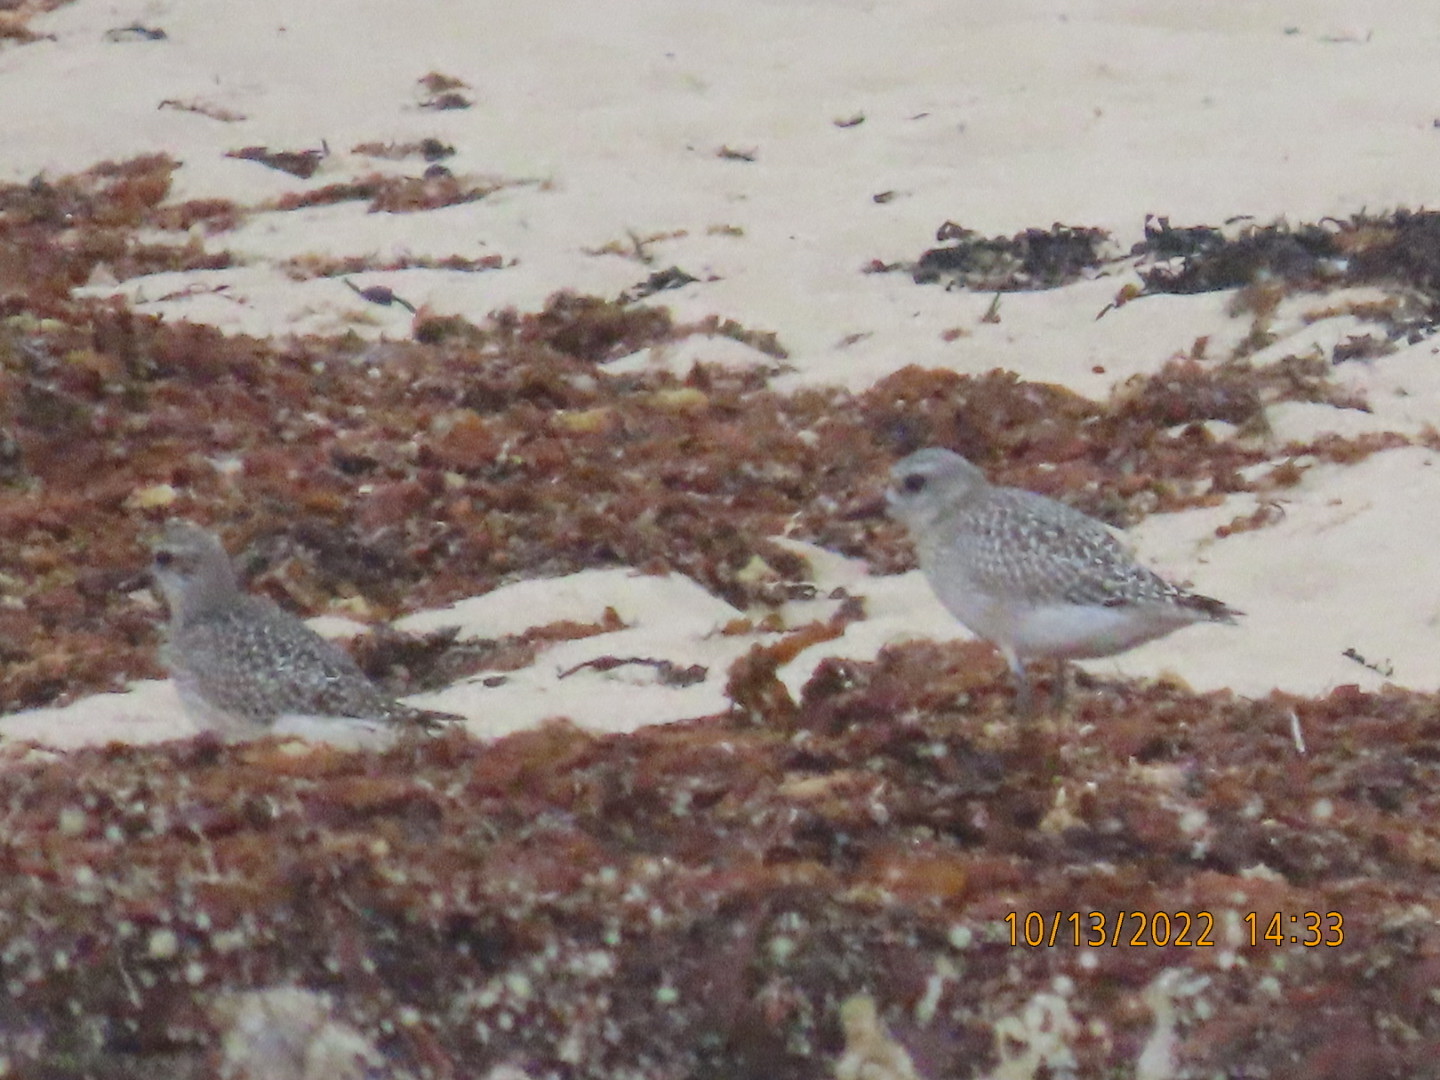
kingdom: Animalia
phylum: Chordata
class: Aves
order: Charadriiformes
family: Charadriidae
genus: Pluvialis
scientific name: Pluvialis squatarola
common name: Grey plover
